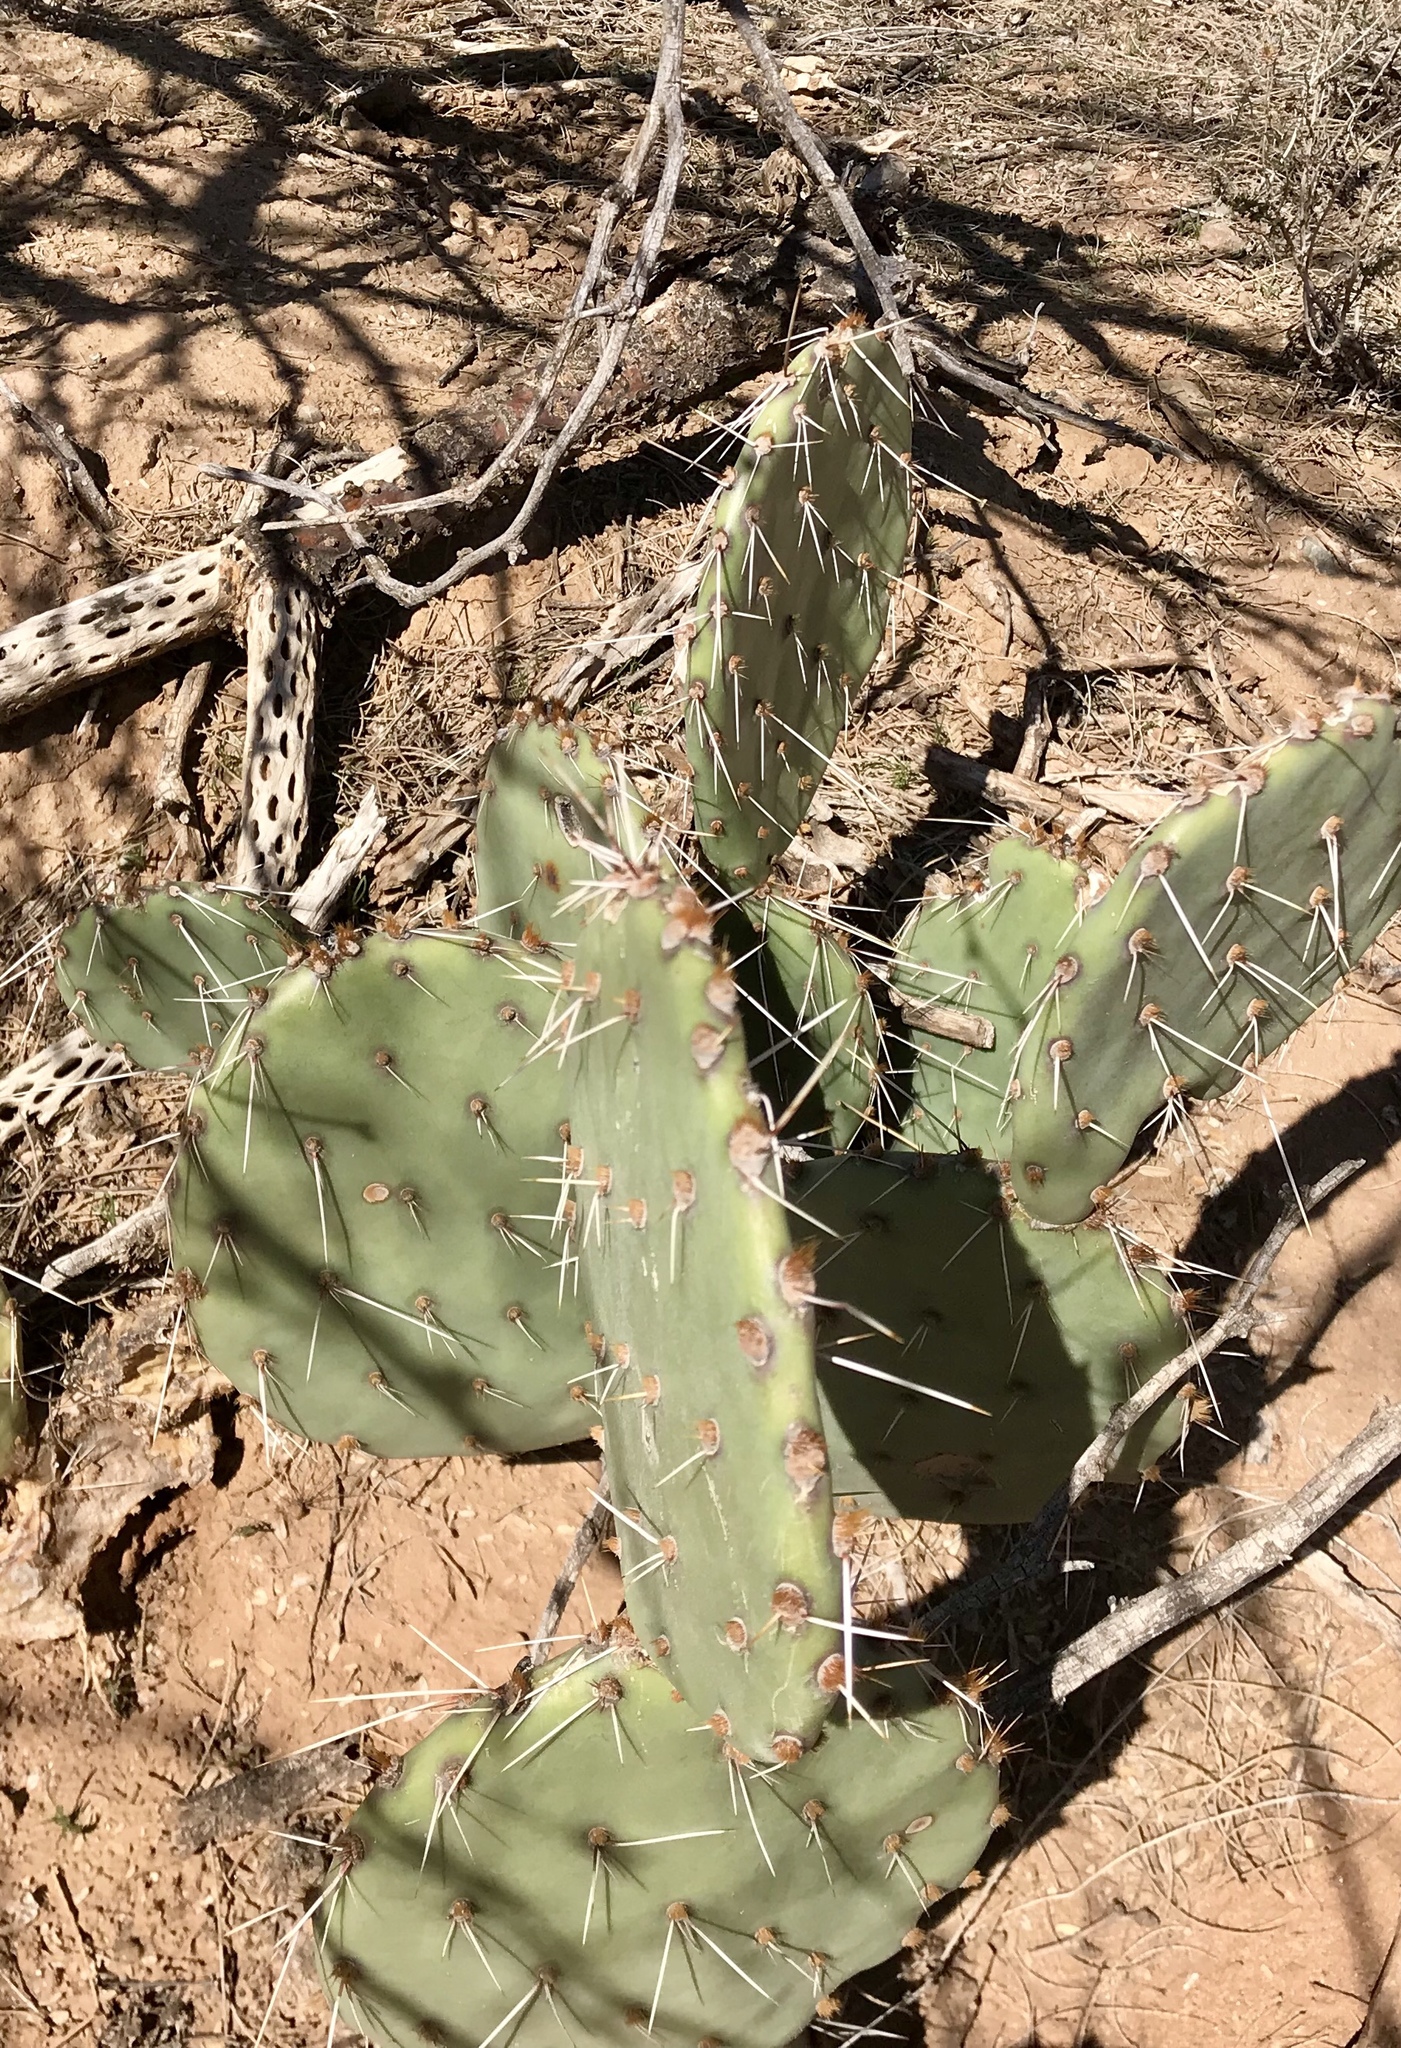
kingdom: Plantae
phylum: Tracheophyta
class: Magnoliopsida
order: Caryophyllales
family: Cactaceae
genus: Opuntia
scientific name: Opuntia phaeacantha
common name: New mexico prickly-pear
